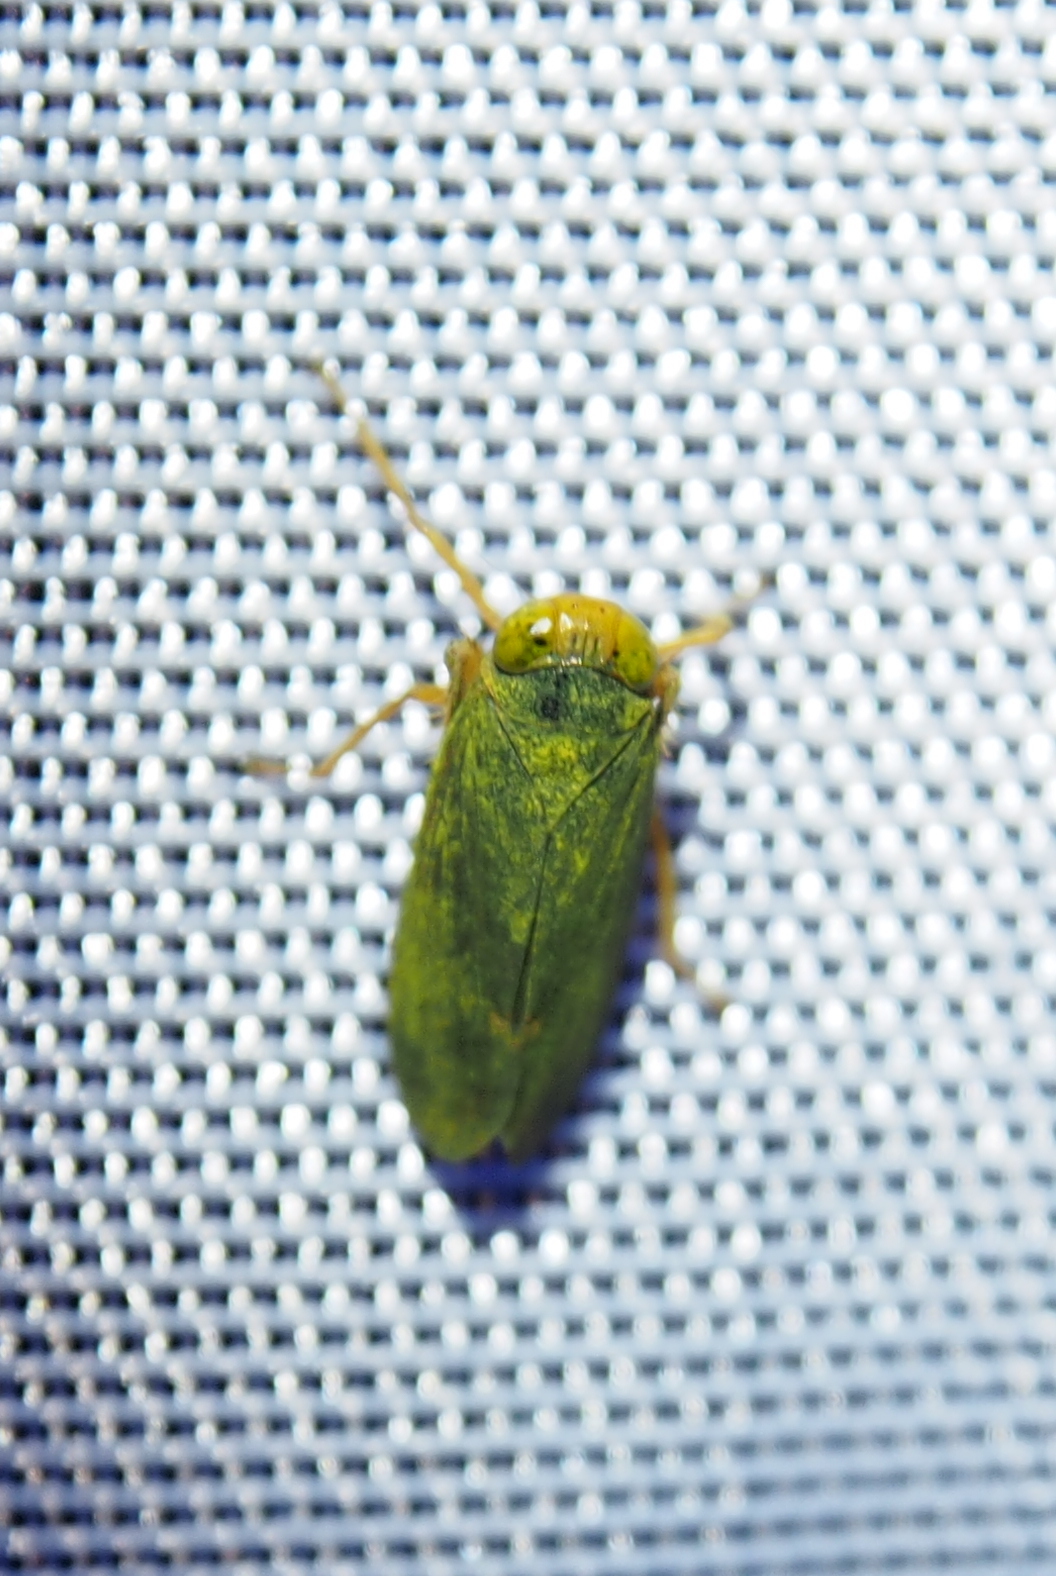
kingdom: Animalia
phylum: Arthropoda
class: Insecta
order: Hemiptera
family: Cicadellidae
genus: Jikradia
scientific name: Jikradia olitoria
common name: Coppery leafhopper
